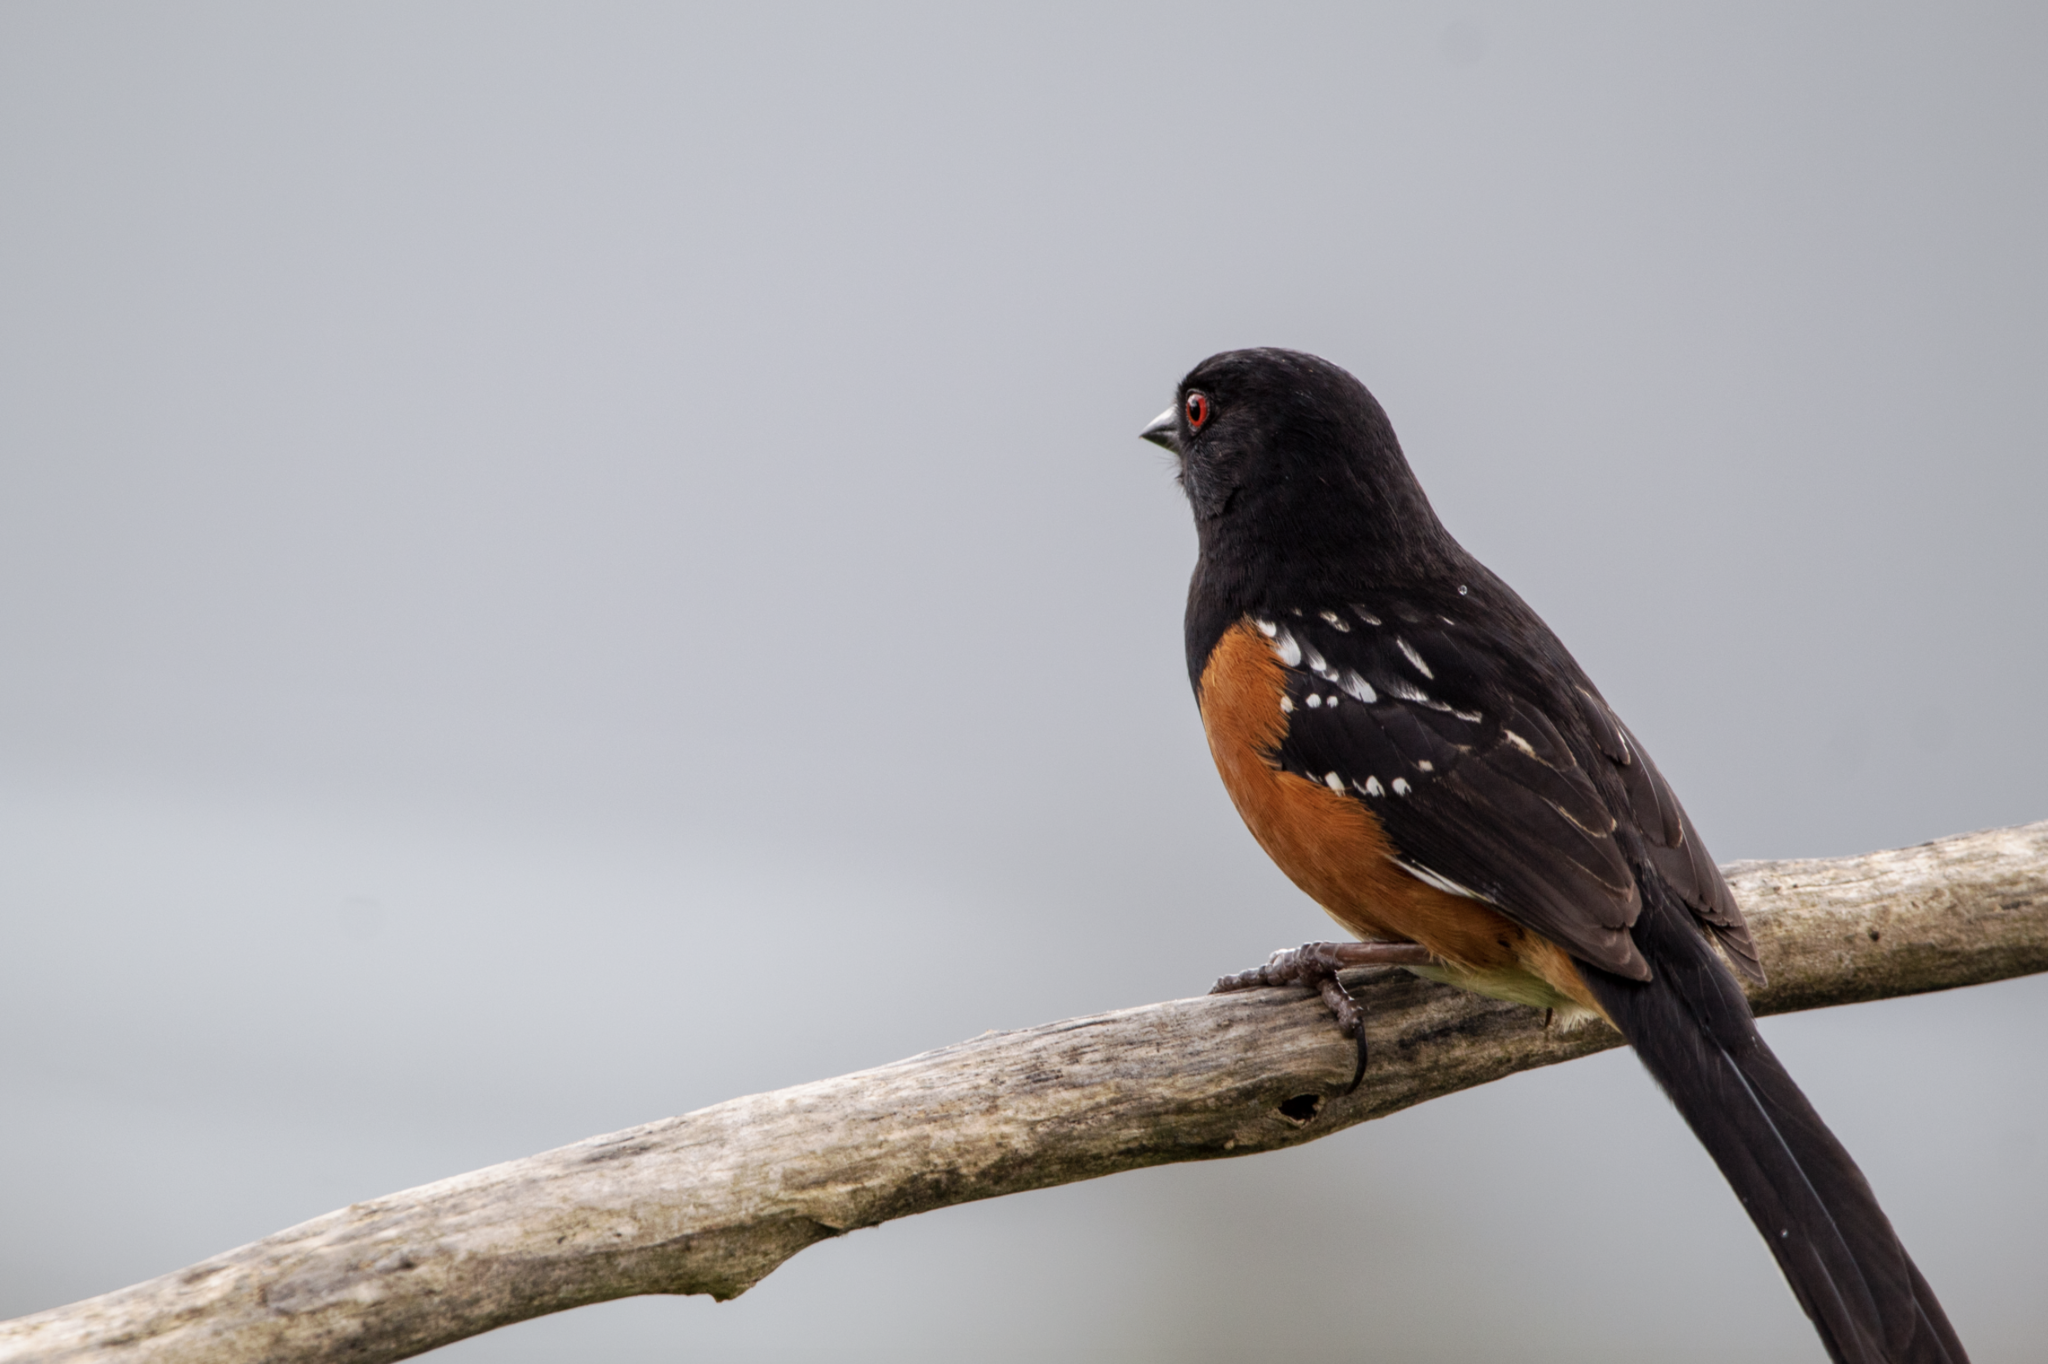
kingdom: Animalia
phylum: Chordata
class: Aves
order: Passeriformes
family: Passerellidae
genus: Pipilo
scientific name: Pipilo maculatus
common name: Spotted towhee
